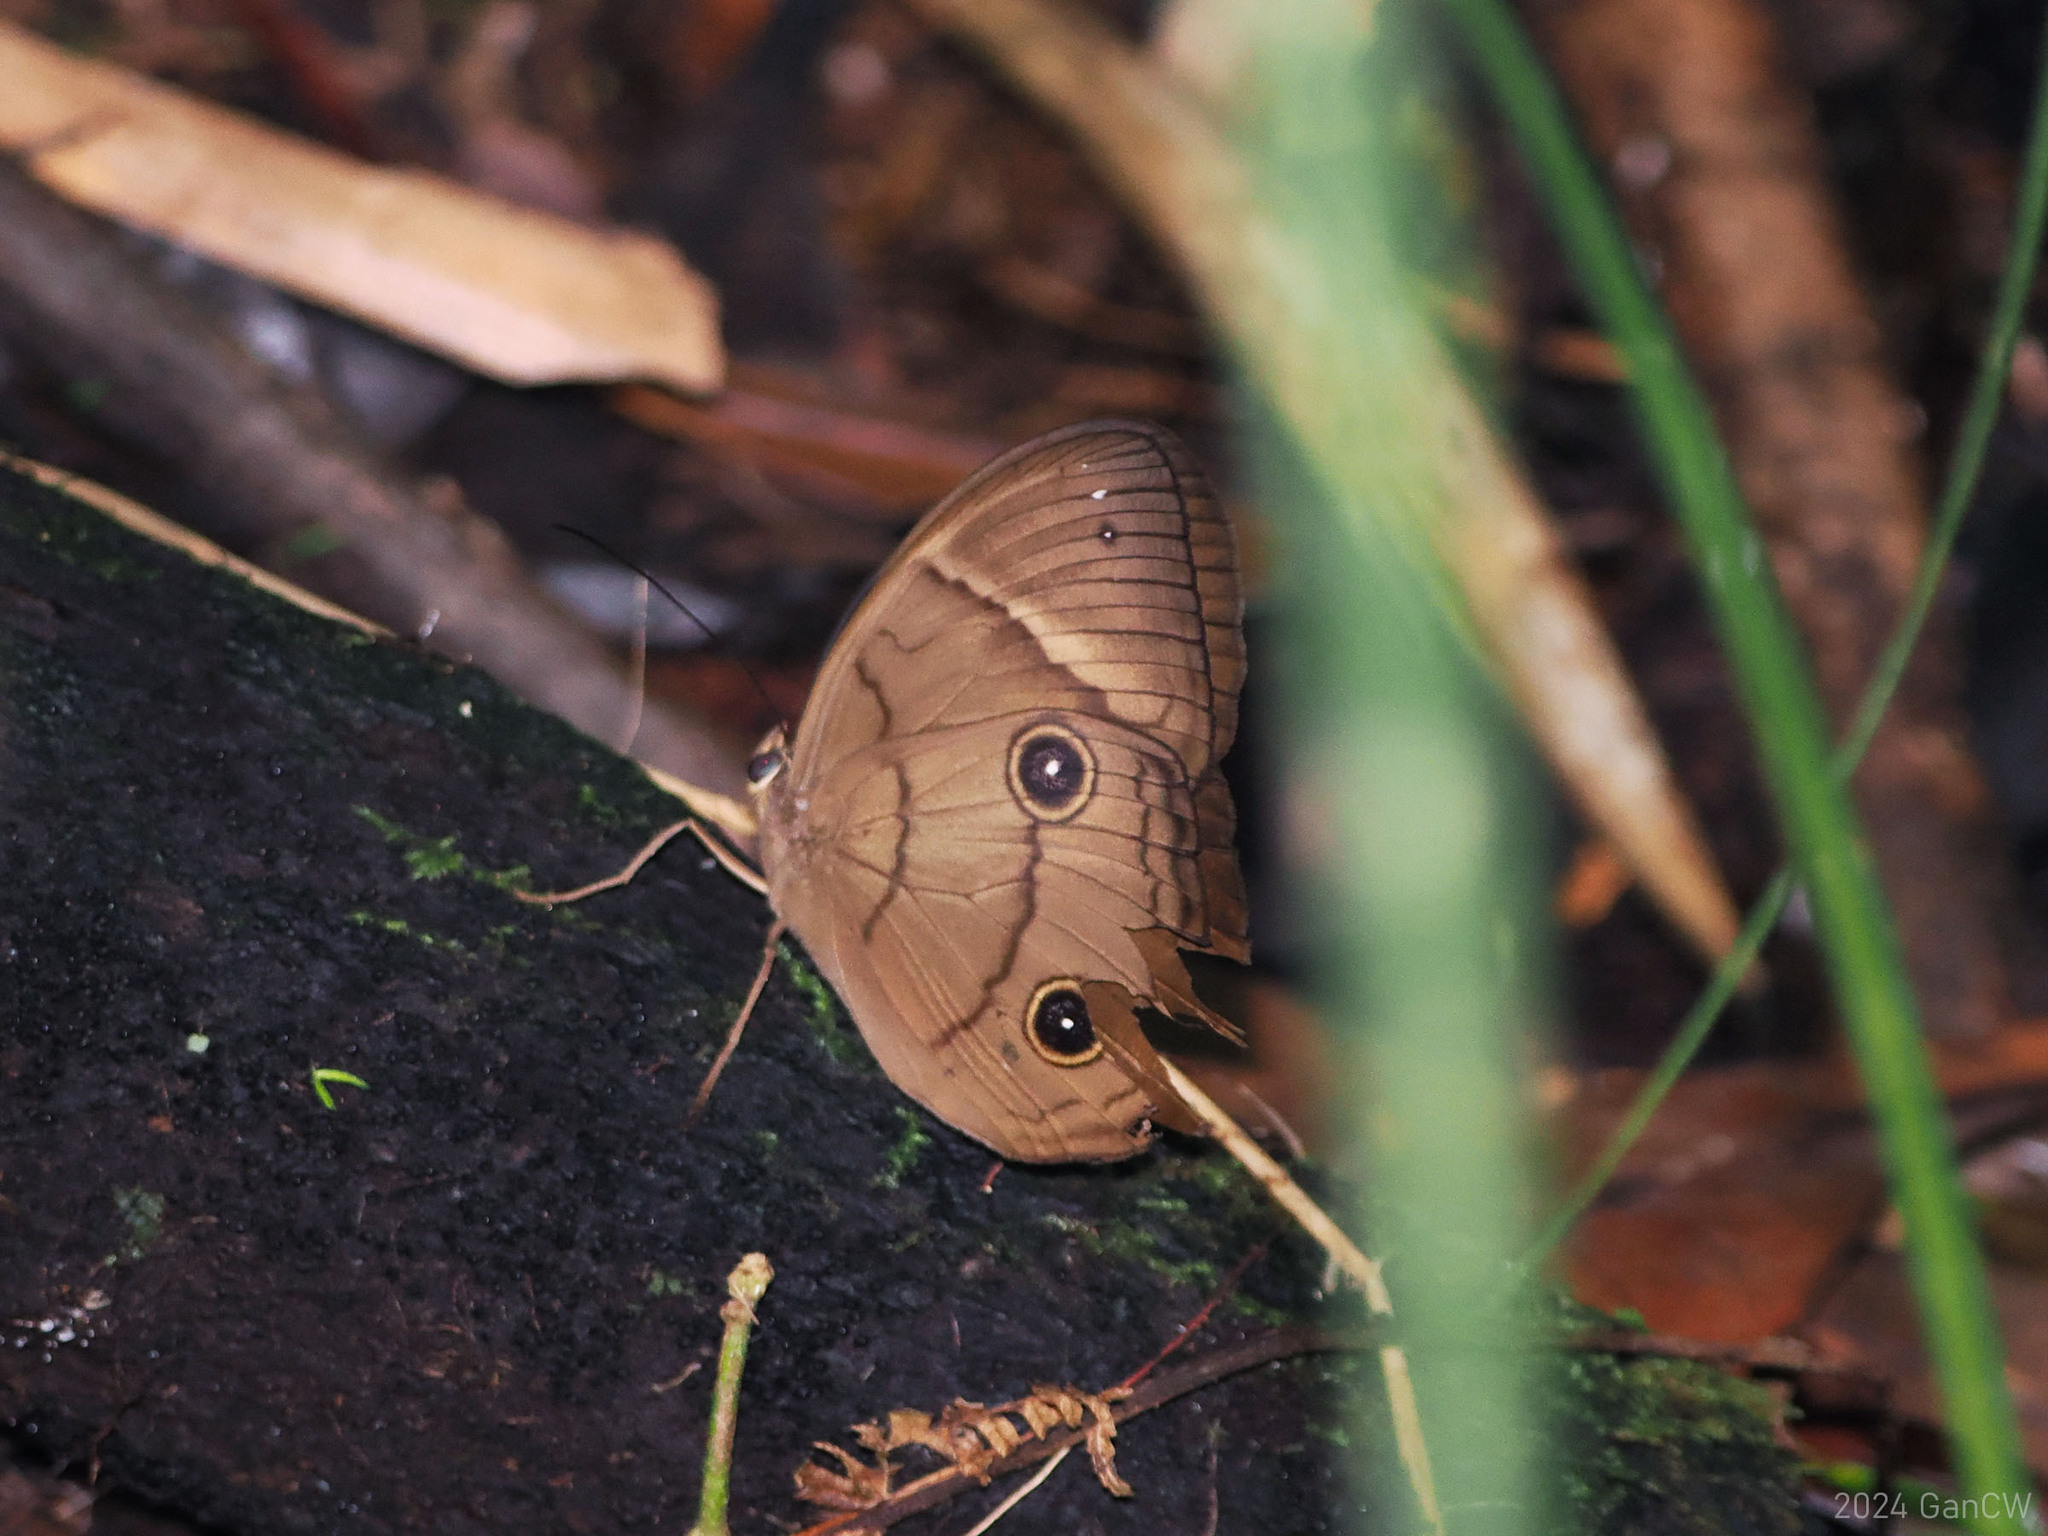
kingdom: Animalia
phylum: Arthropoda
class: Insecta
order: Lepidoptera
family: Nymphalidae
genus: Faunis
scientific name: Faunis sappho
